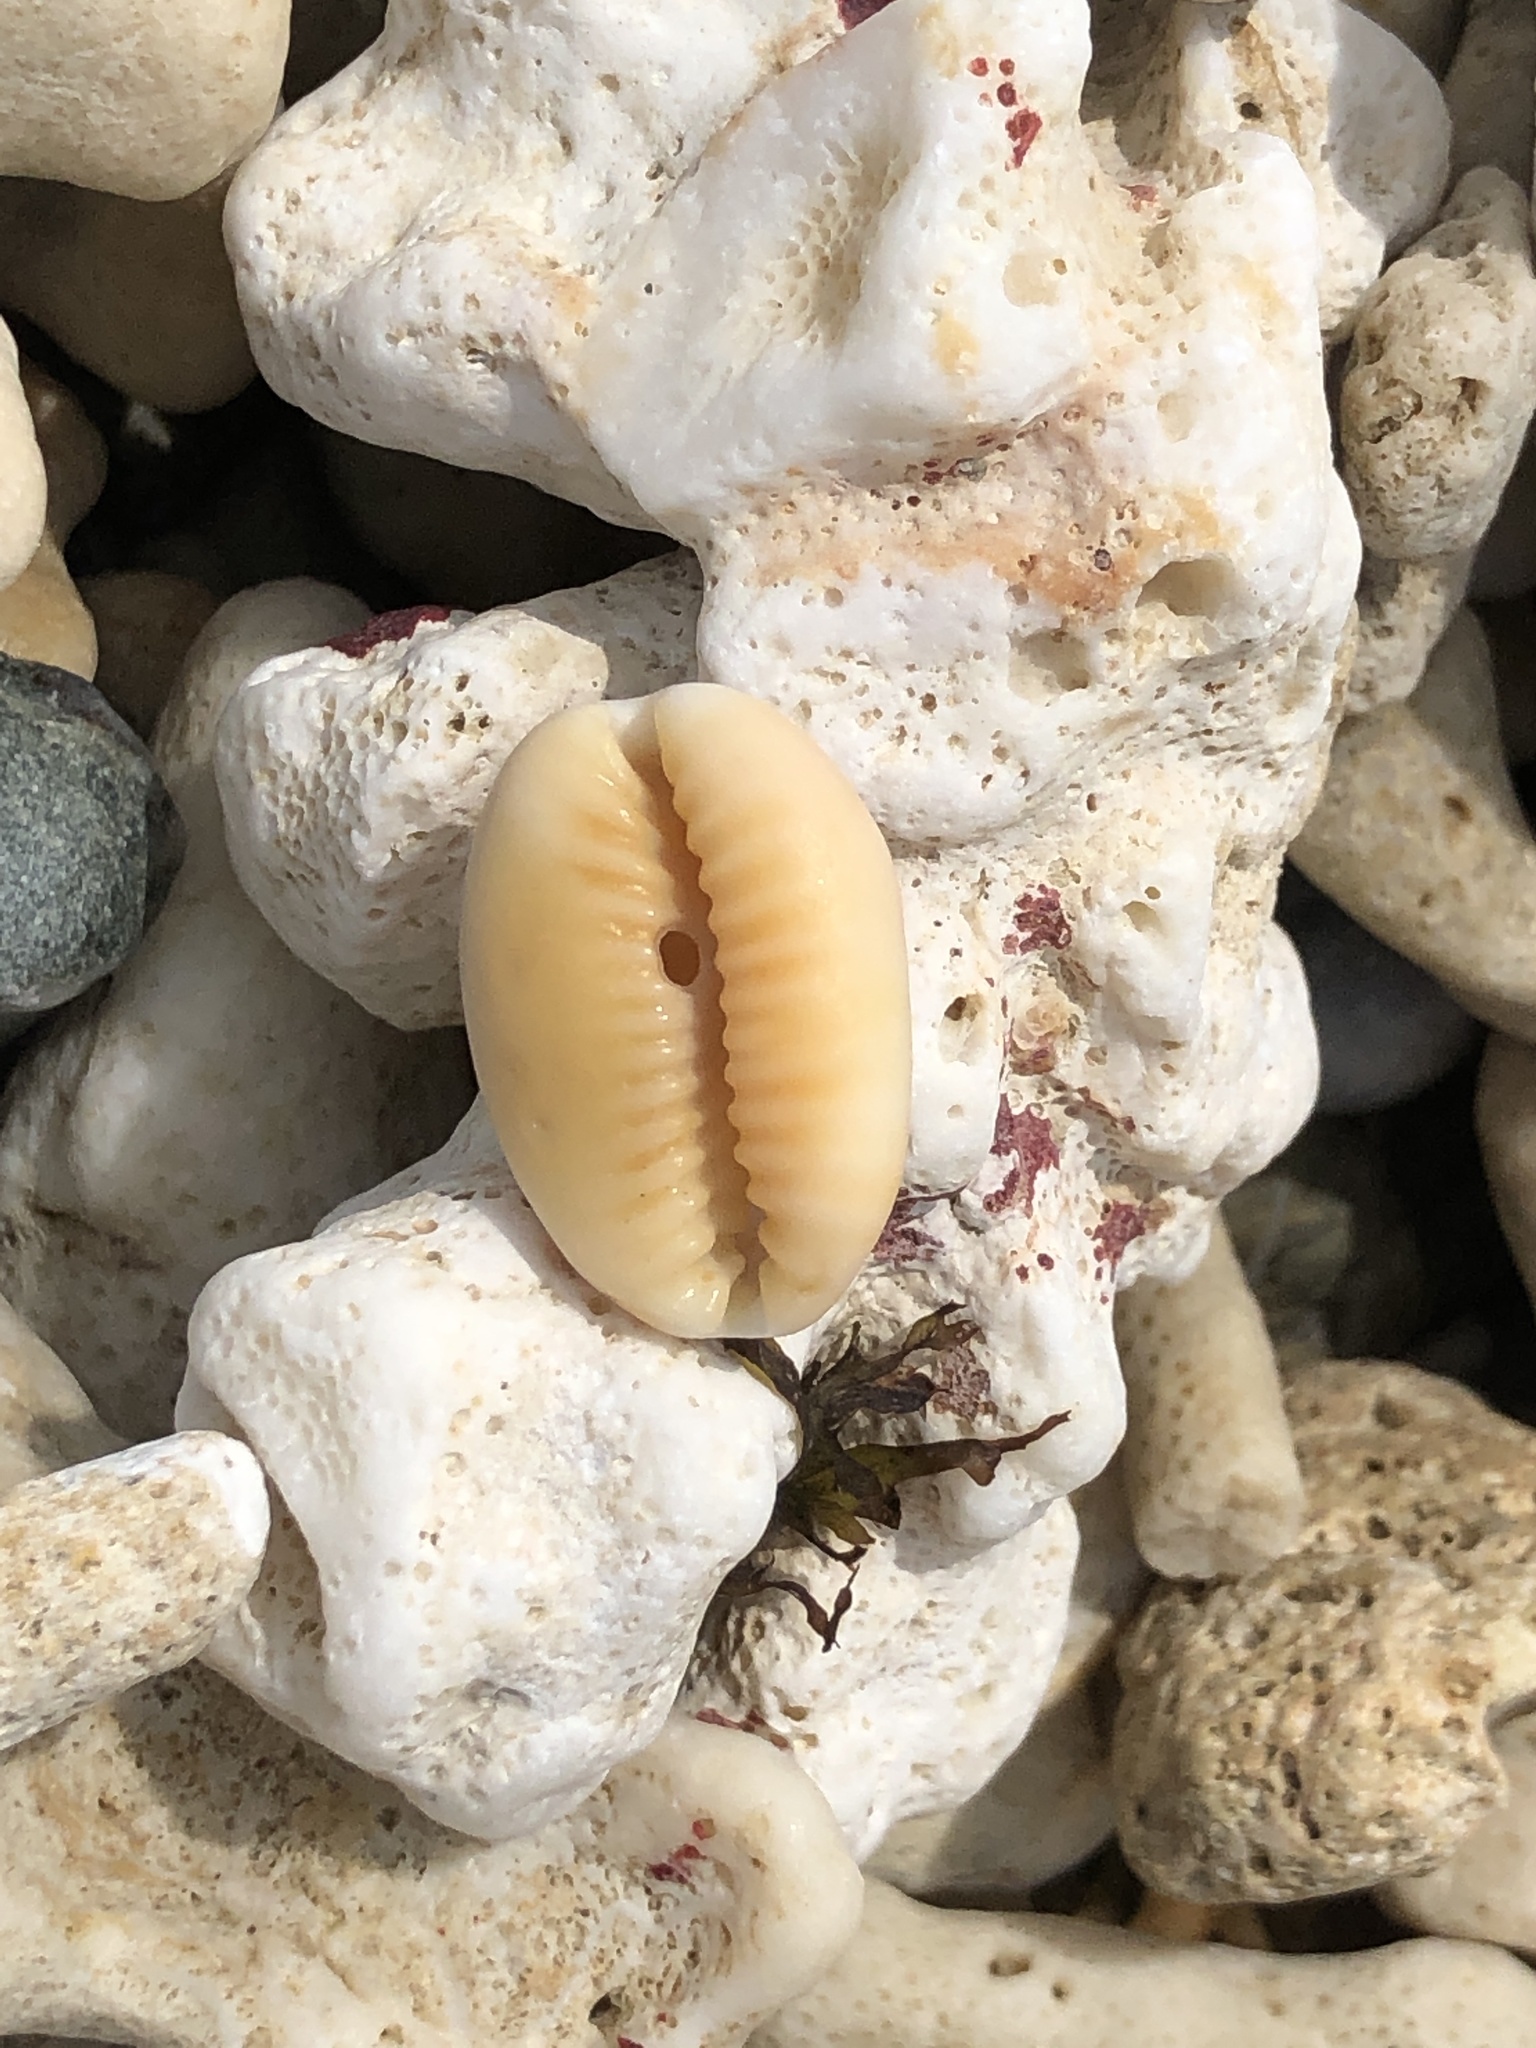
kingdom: Animalia
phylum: Mollusca
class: Gastropoda
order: Littorinimorpha
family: Cypraeidae
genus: Naria
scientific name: Naria helvola
